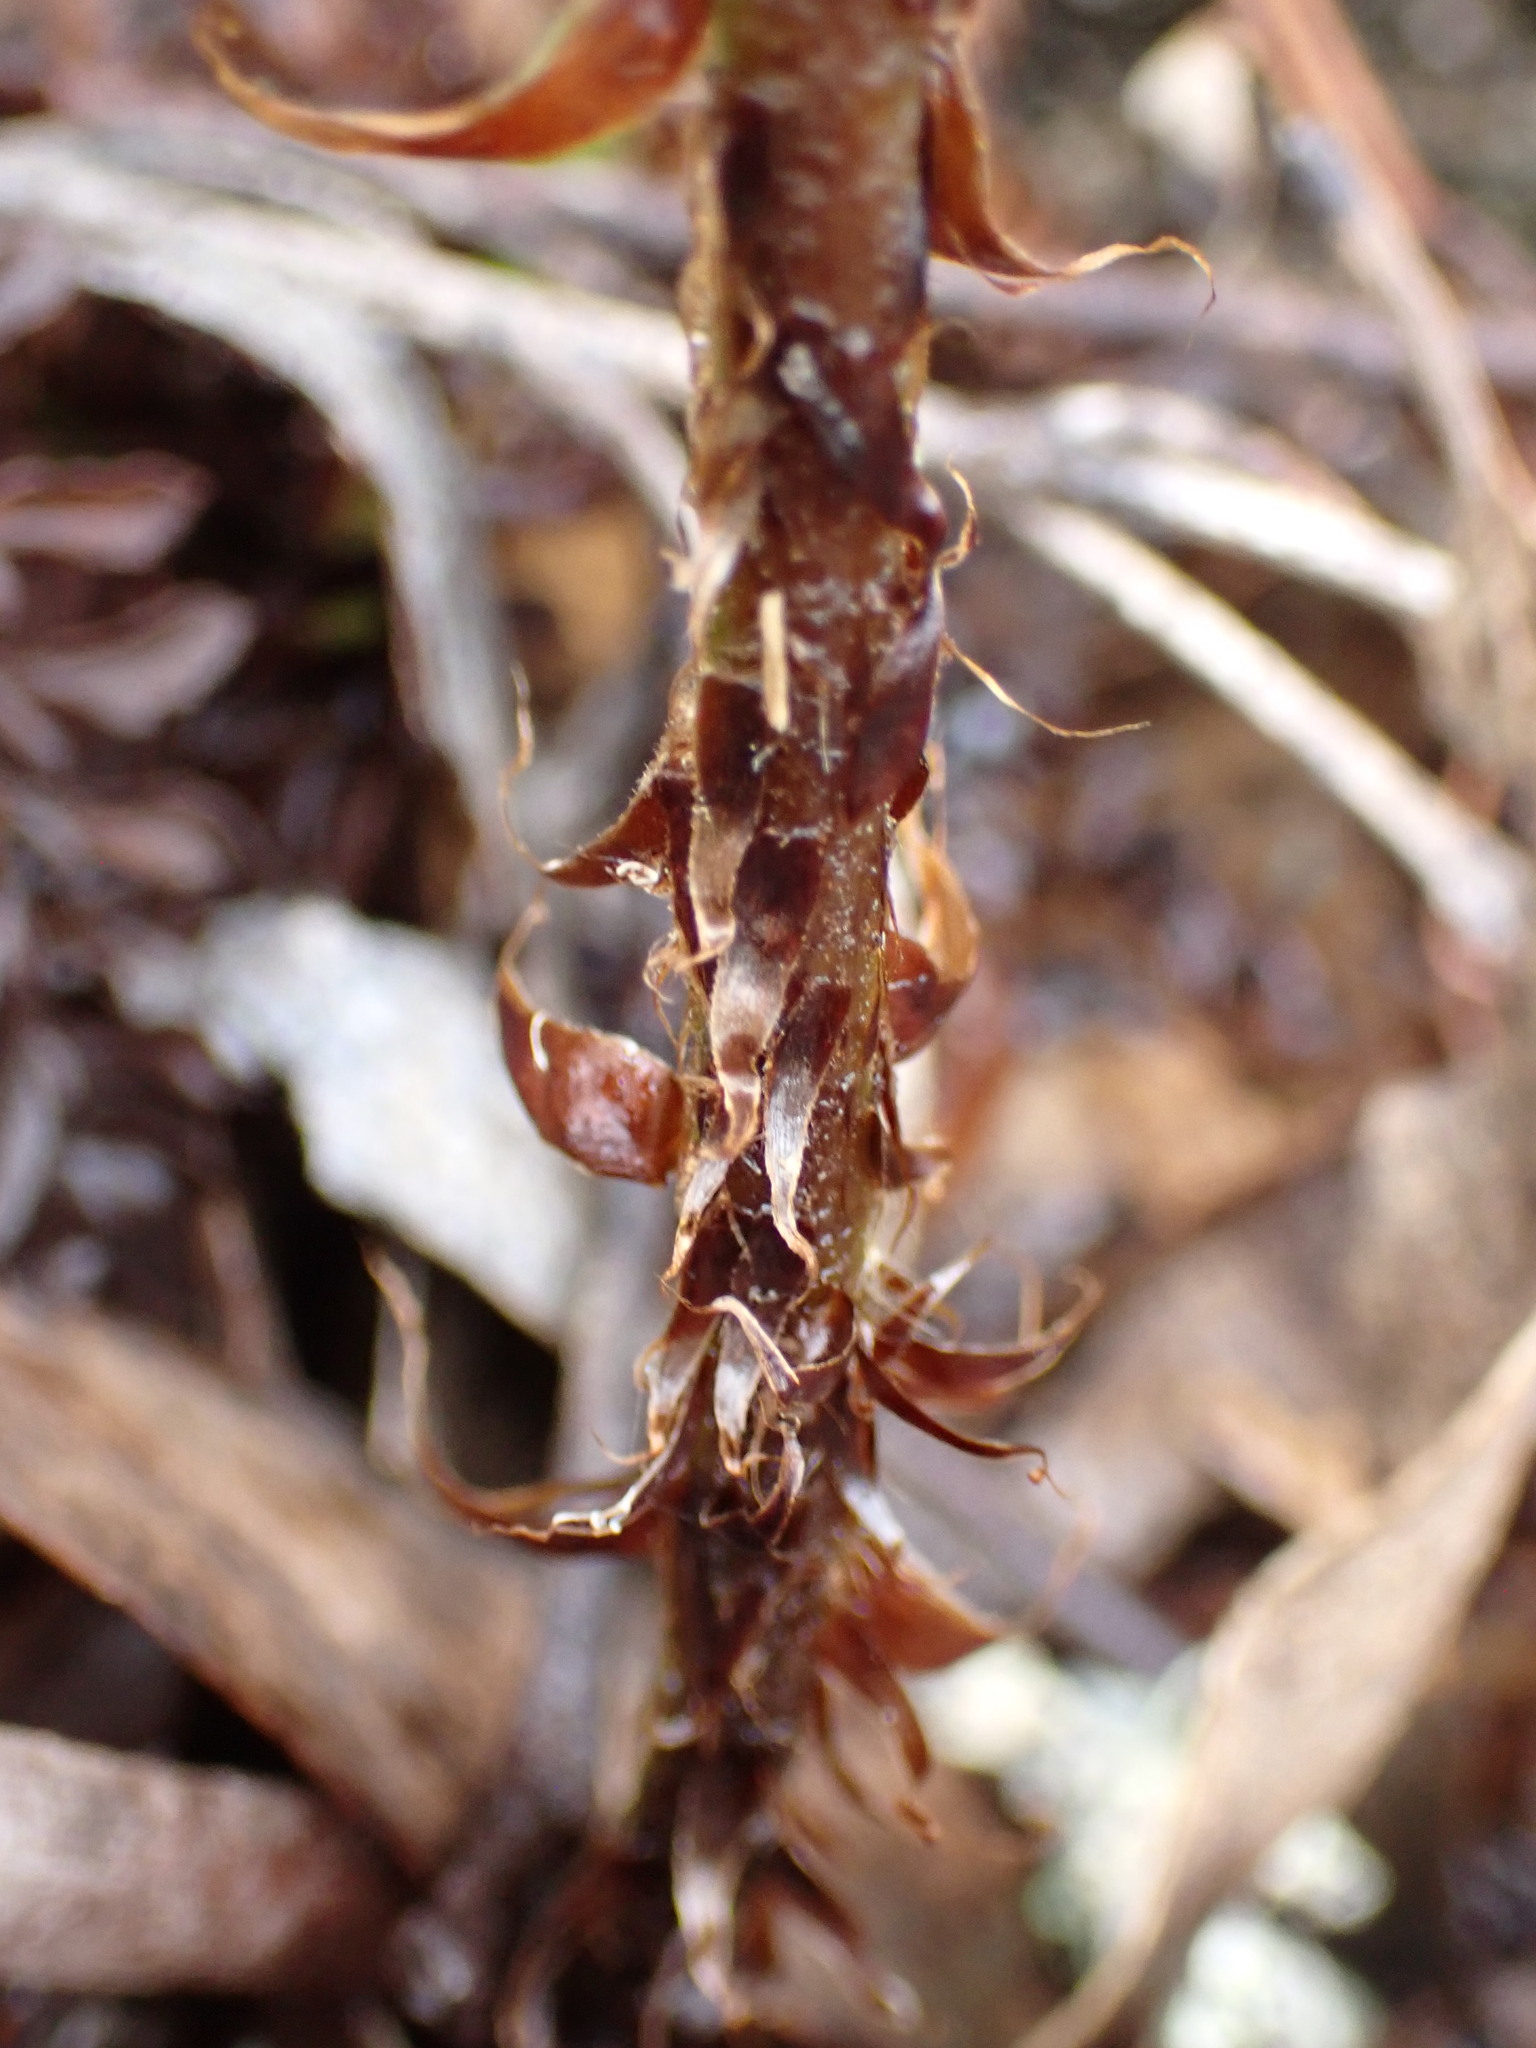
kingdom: Plantae
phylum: Tracheophyta
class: Polypodiopsida
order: Polypodiales
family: Dryopteridaceae
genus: Polystichum
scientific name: Polystichum proliferum
